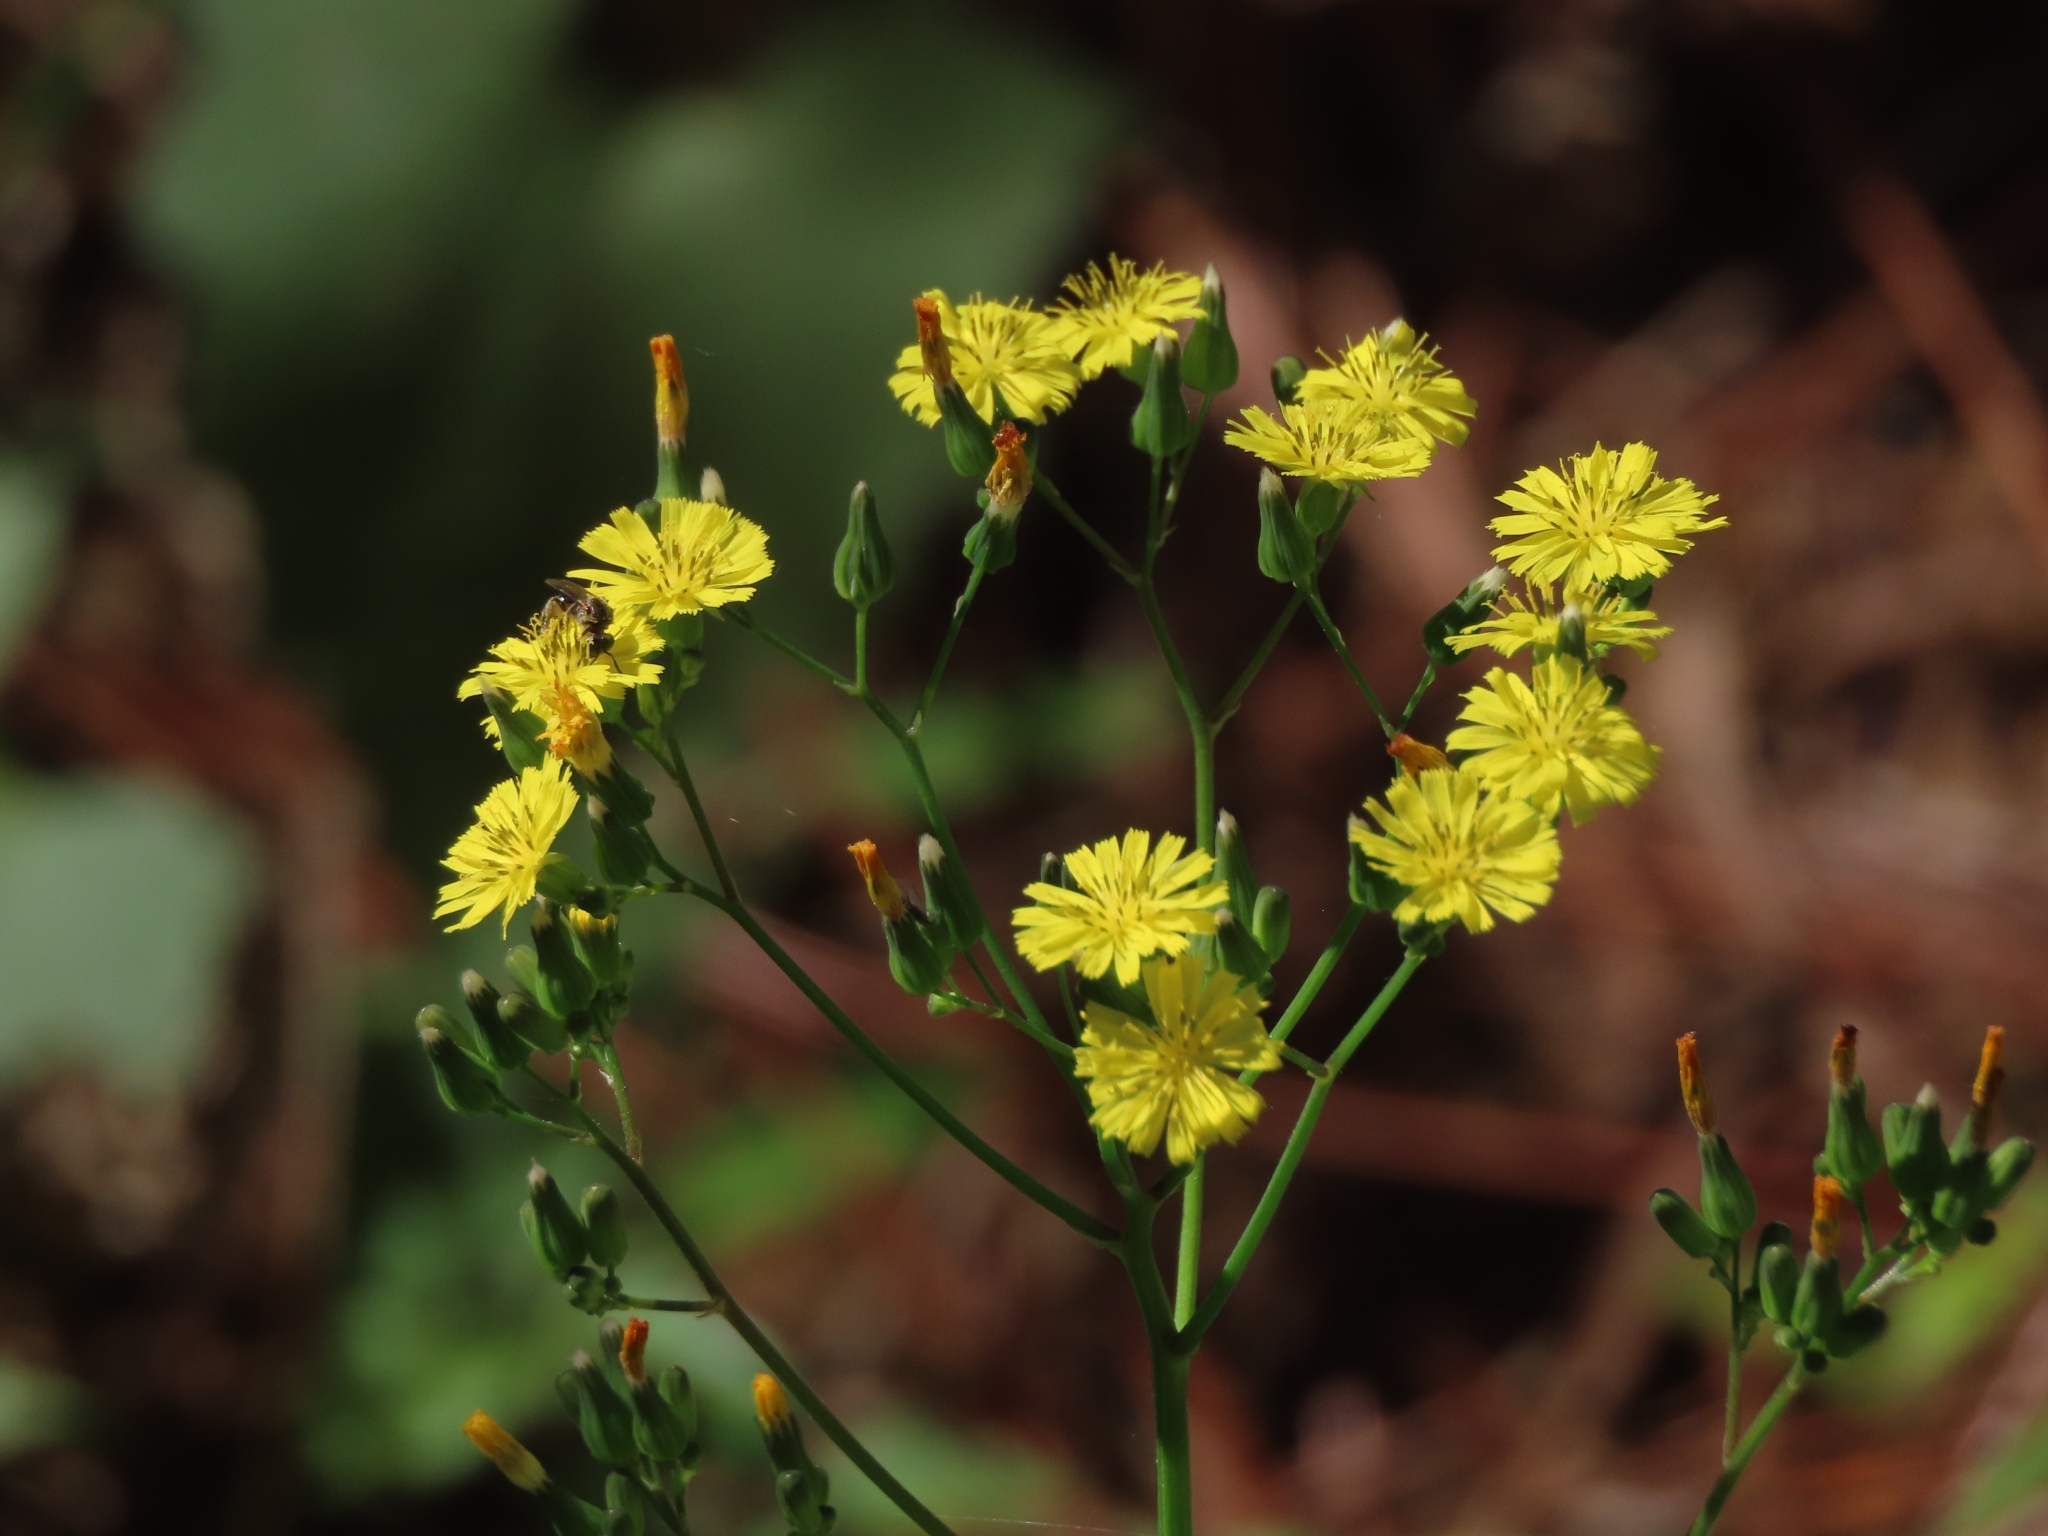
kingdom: Plantae
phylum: Tracheophyta
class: Magnoliopsida
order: Asterales
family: Asteraceae
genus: Youngia
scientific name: Youngia japonica
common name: Oriental false hawksbeard
